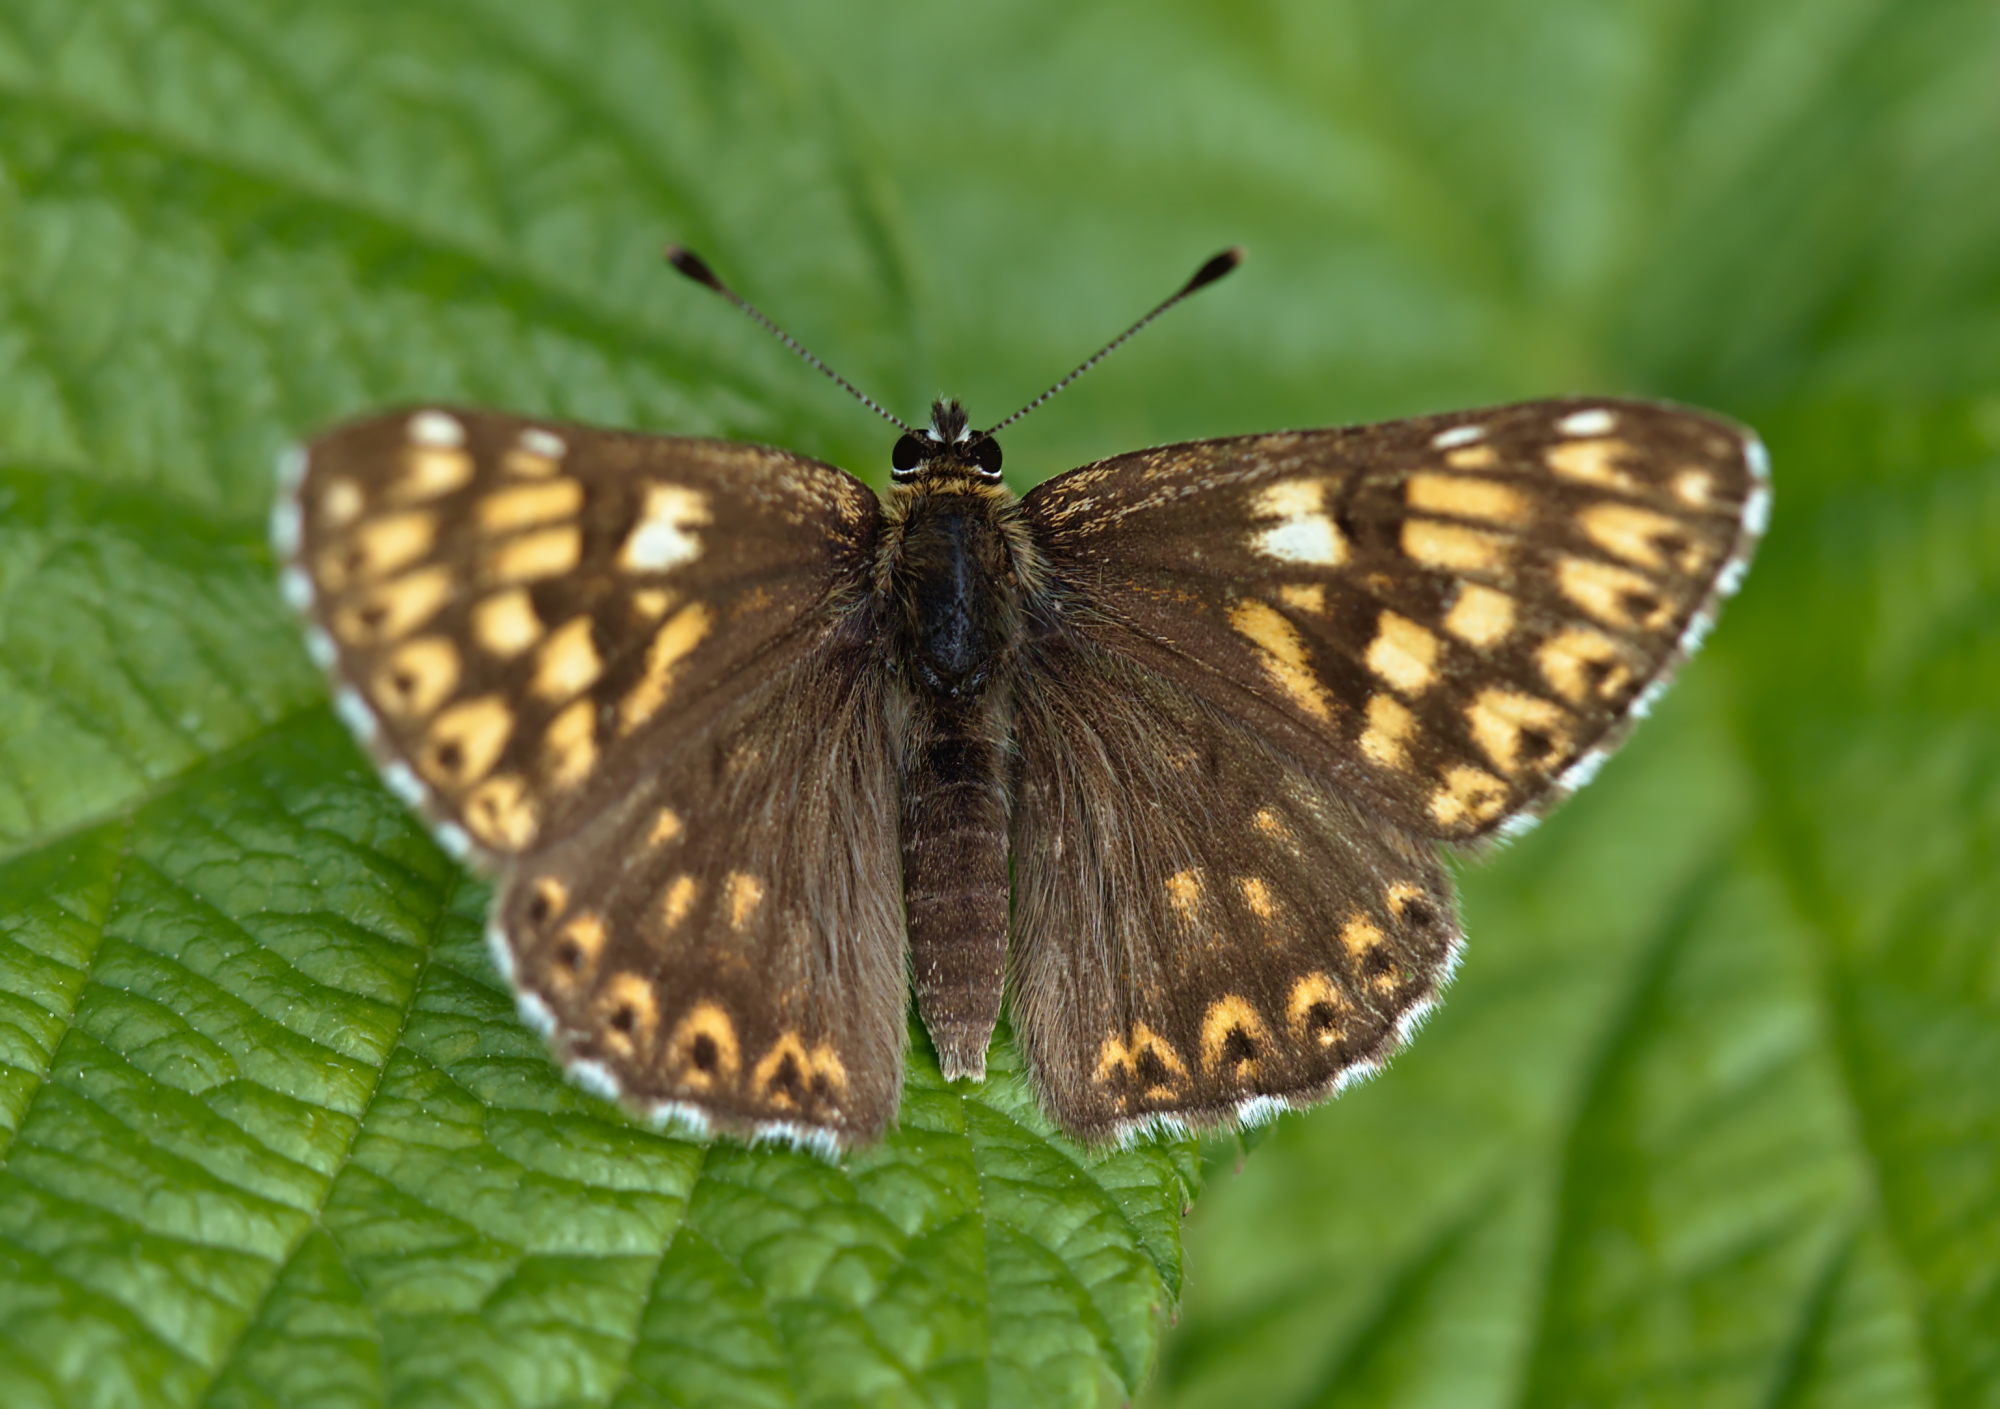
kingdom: Animalia
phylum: Arthropoda
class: Insecta
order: Lepidoptera
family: Riodinidae
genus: Hamearis
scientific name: Hamearis lucina
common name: Duke of burgundy fritillary
